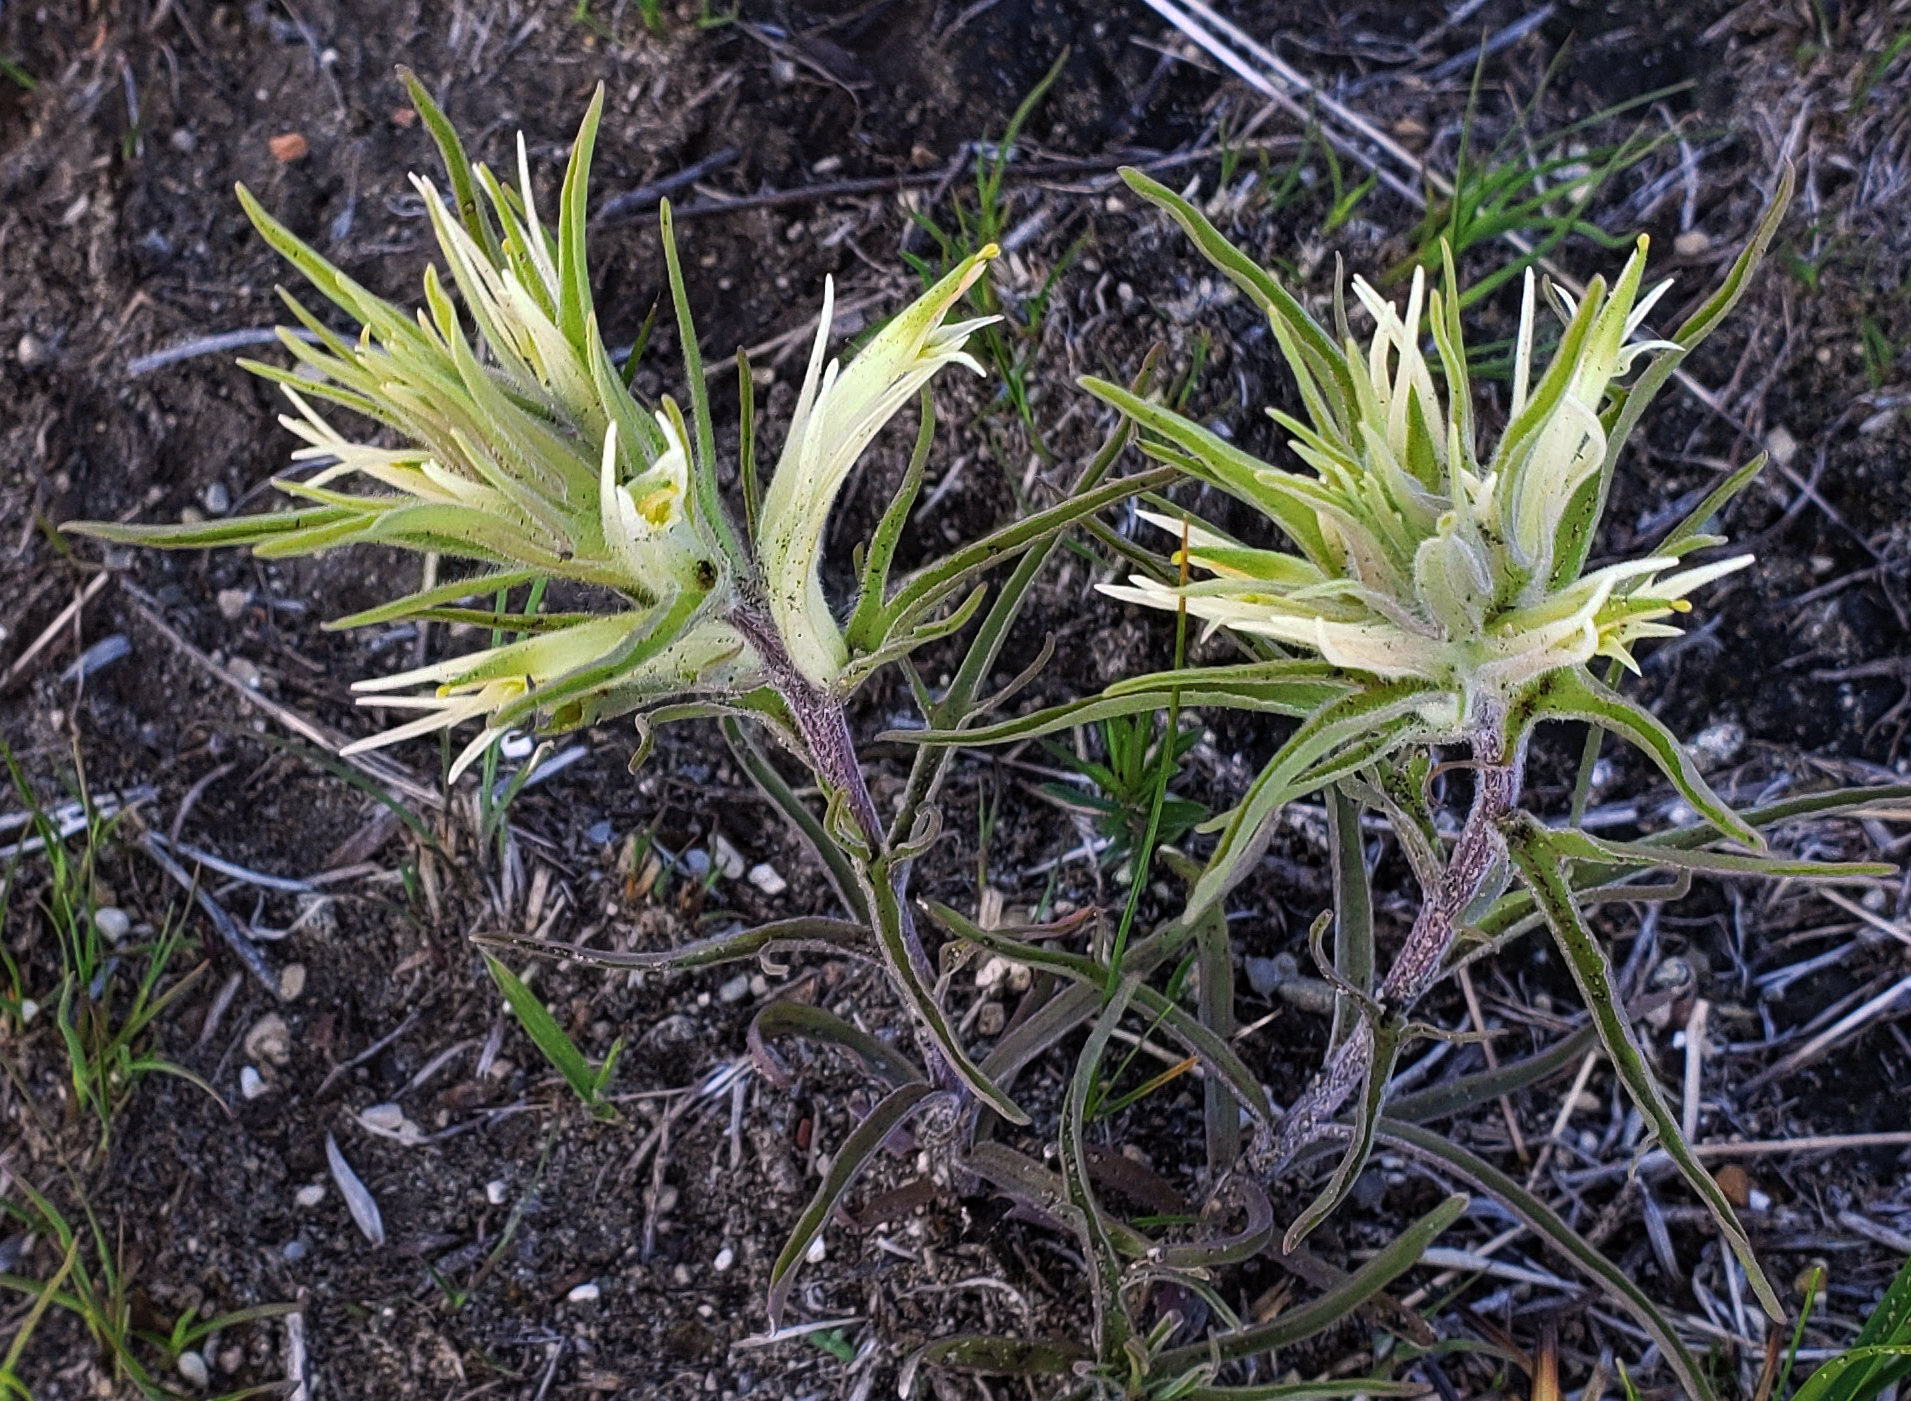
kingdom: Plantae
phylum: Tracheophyta
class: Magnoliopsida
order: Lamiales
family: Orobanchaceae
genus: Castilleja
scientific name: Castilleja sessiliflora
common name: Downy paintbrush
